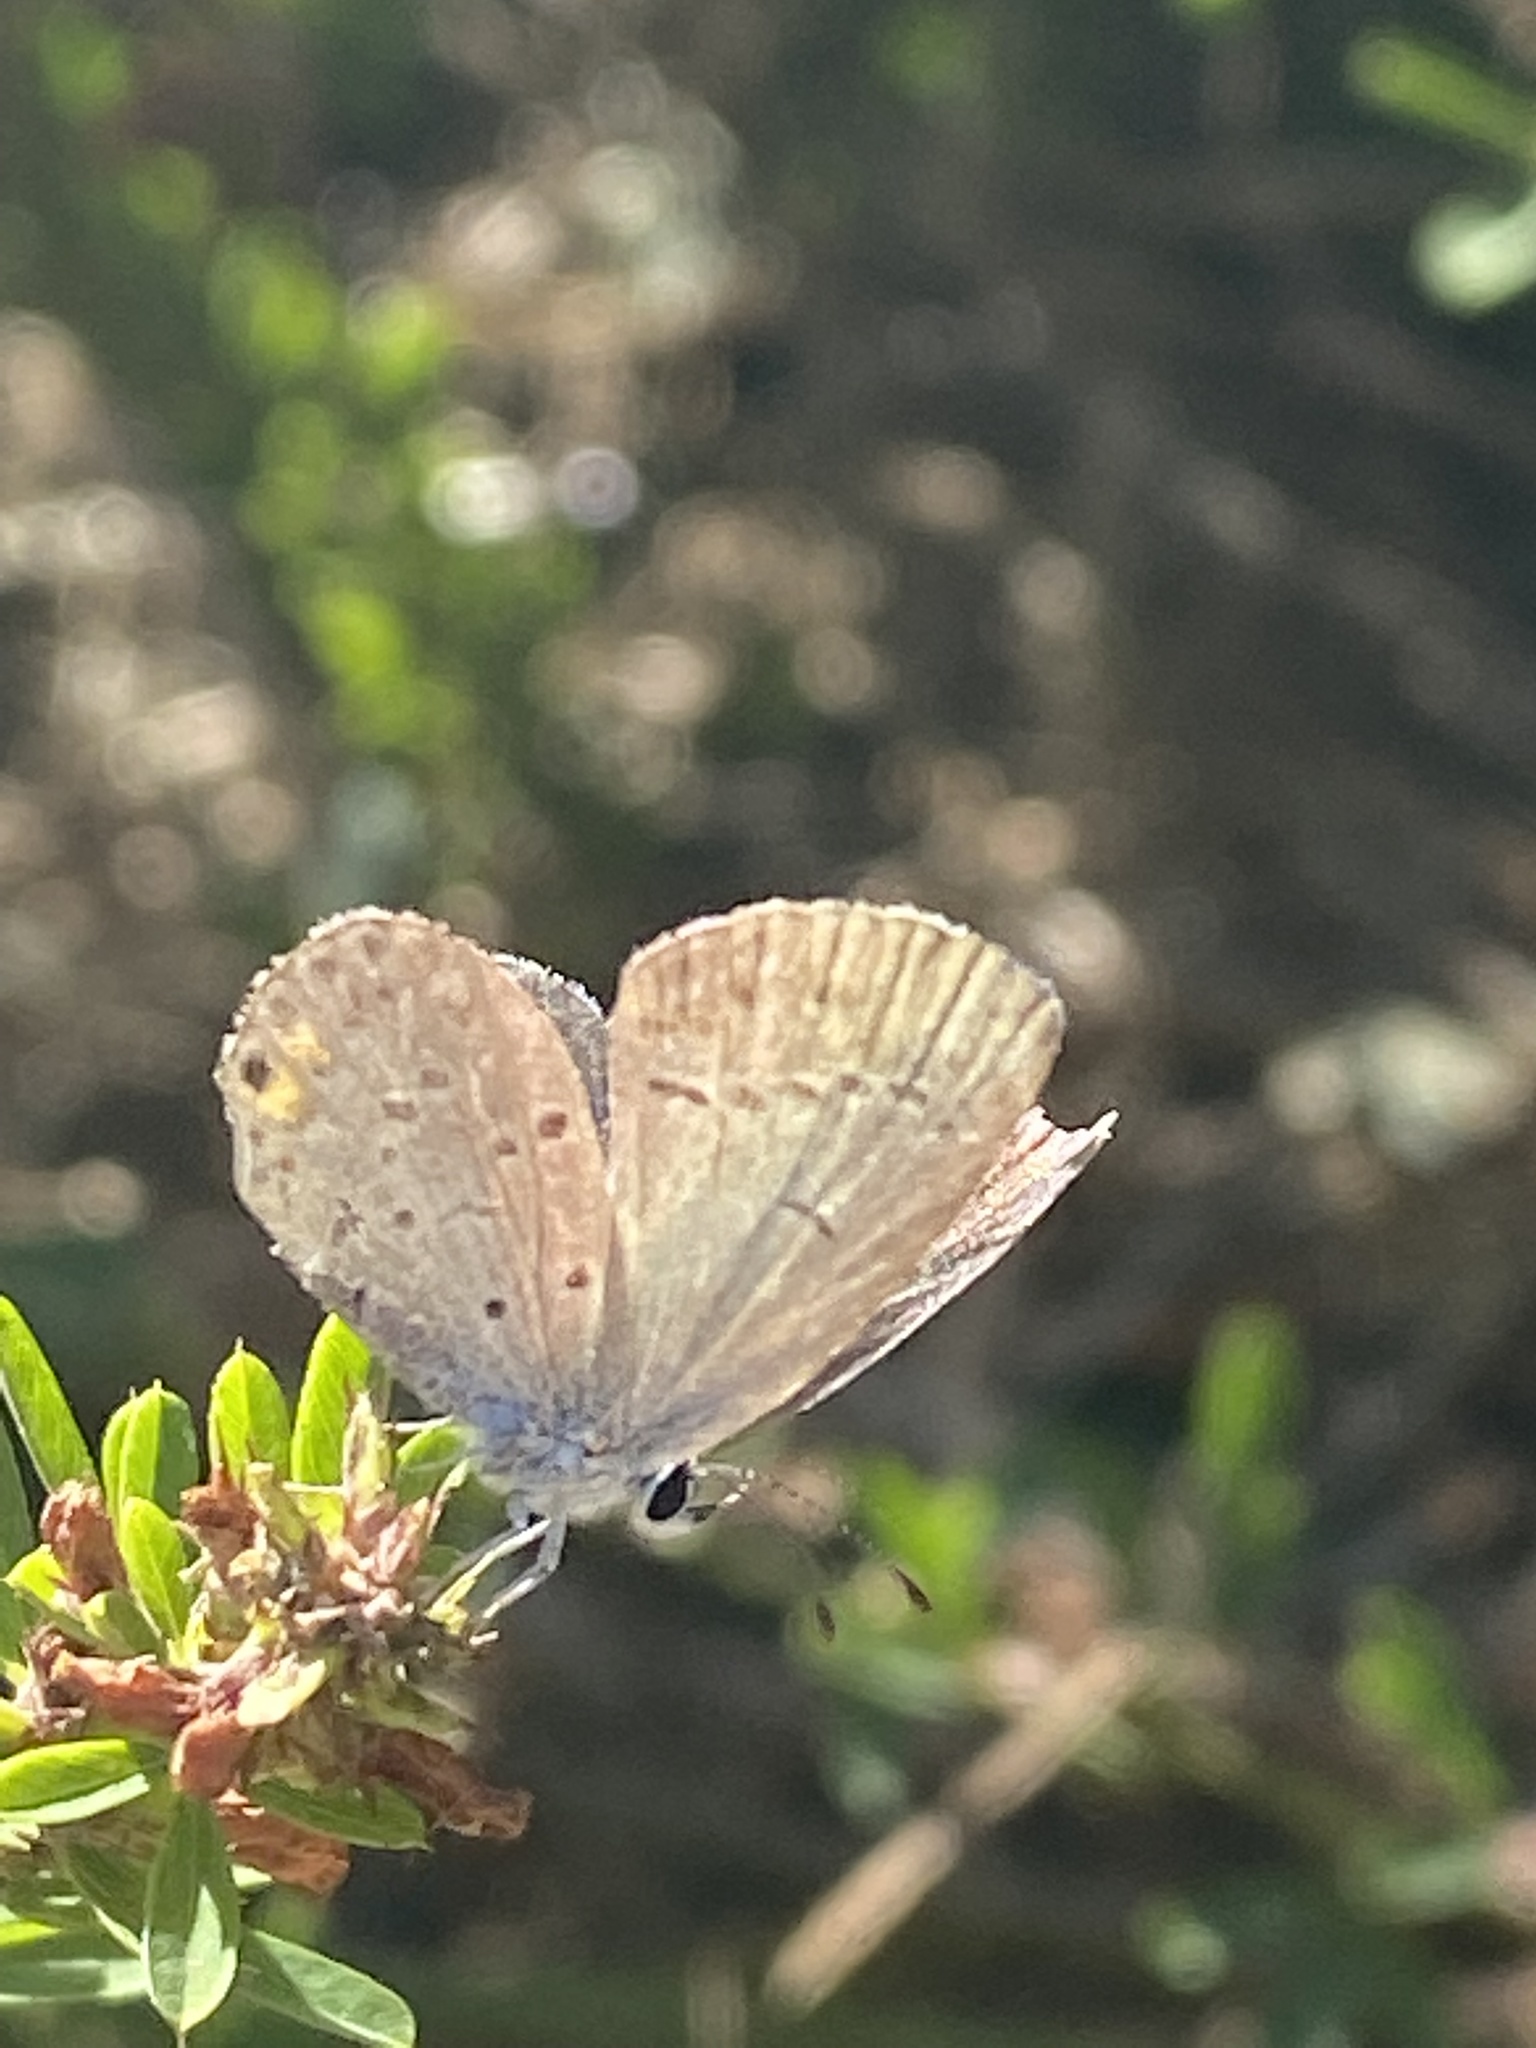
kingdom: Animalia
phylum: Arthropoda
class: Insecta
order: Lepidoptera
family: Lycaenidae
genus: Elkalyce
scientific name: Elkalyce comyntas
